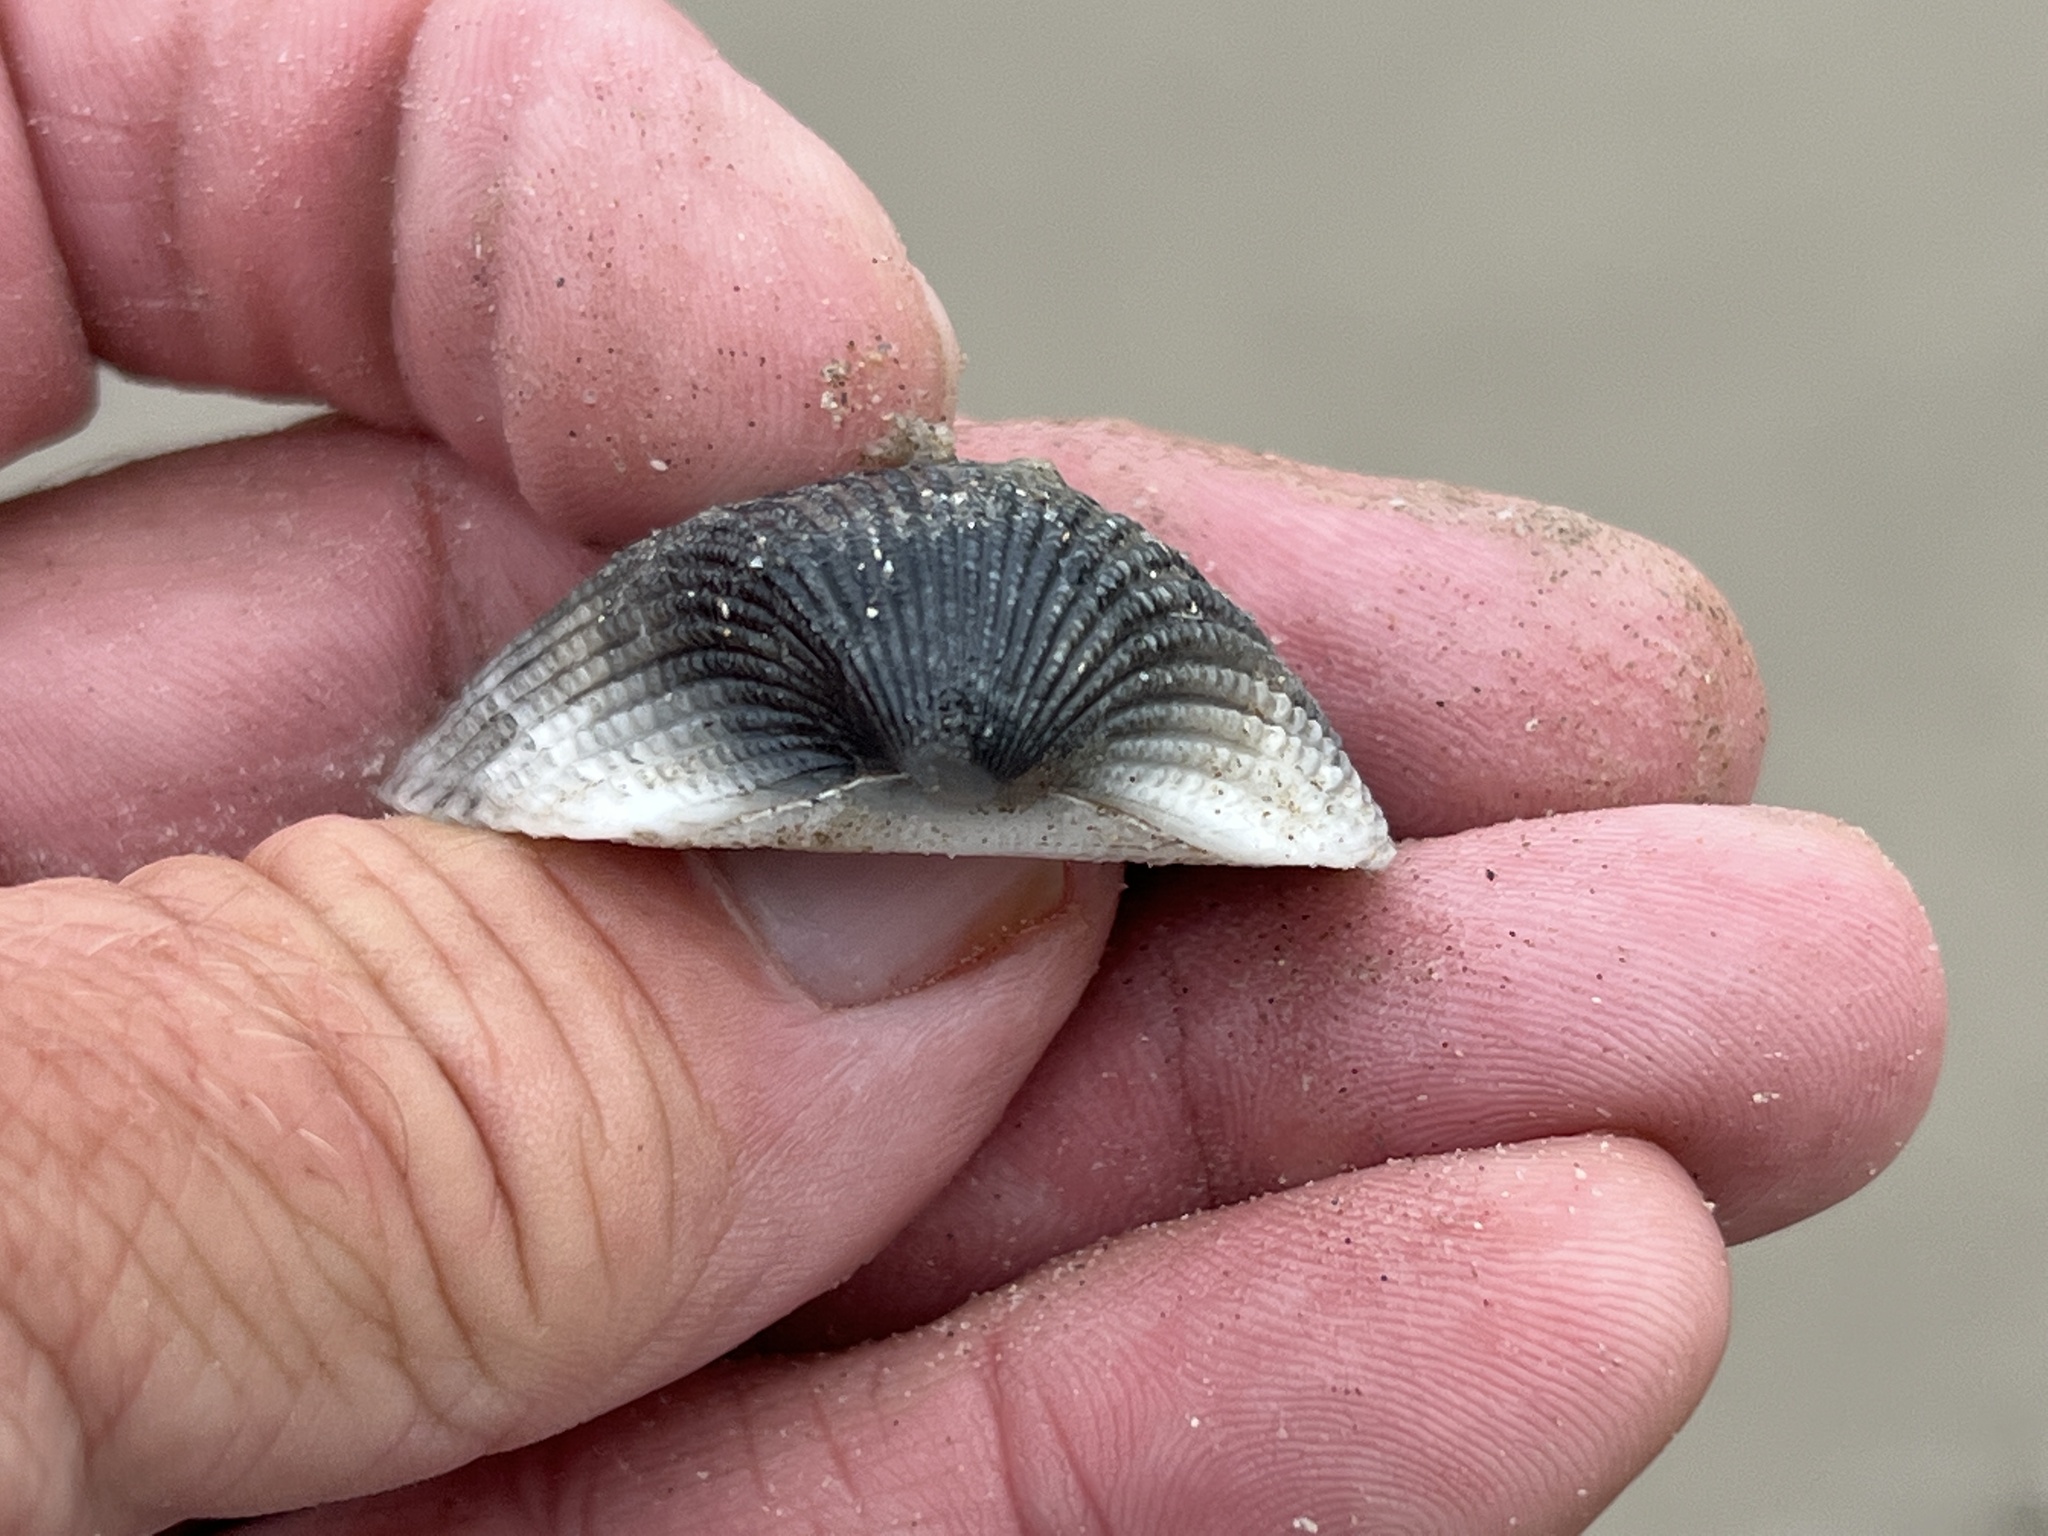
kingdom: Animalia
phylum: Mollusca
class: Bivalvia
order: Arcida
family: Arcidae
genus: Anadara
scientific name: Anadara brasiliana
